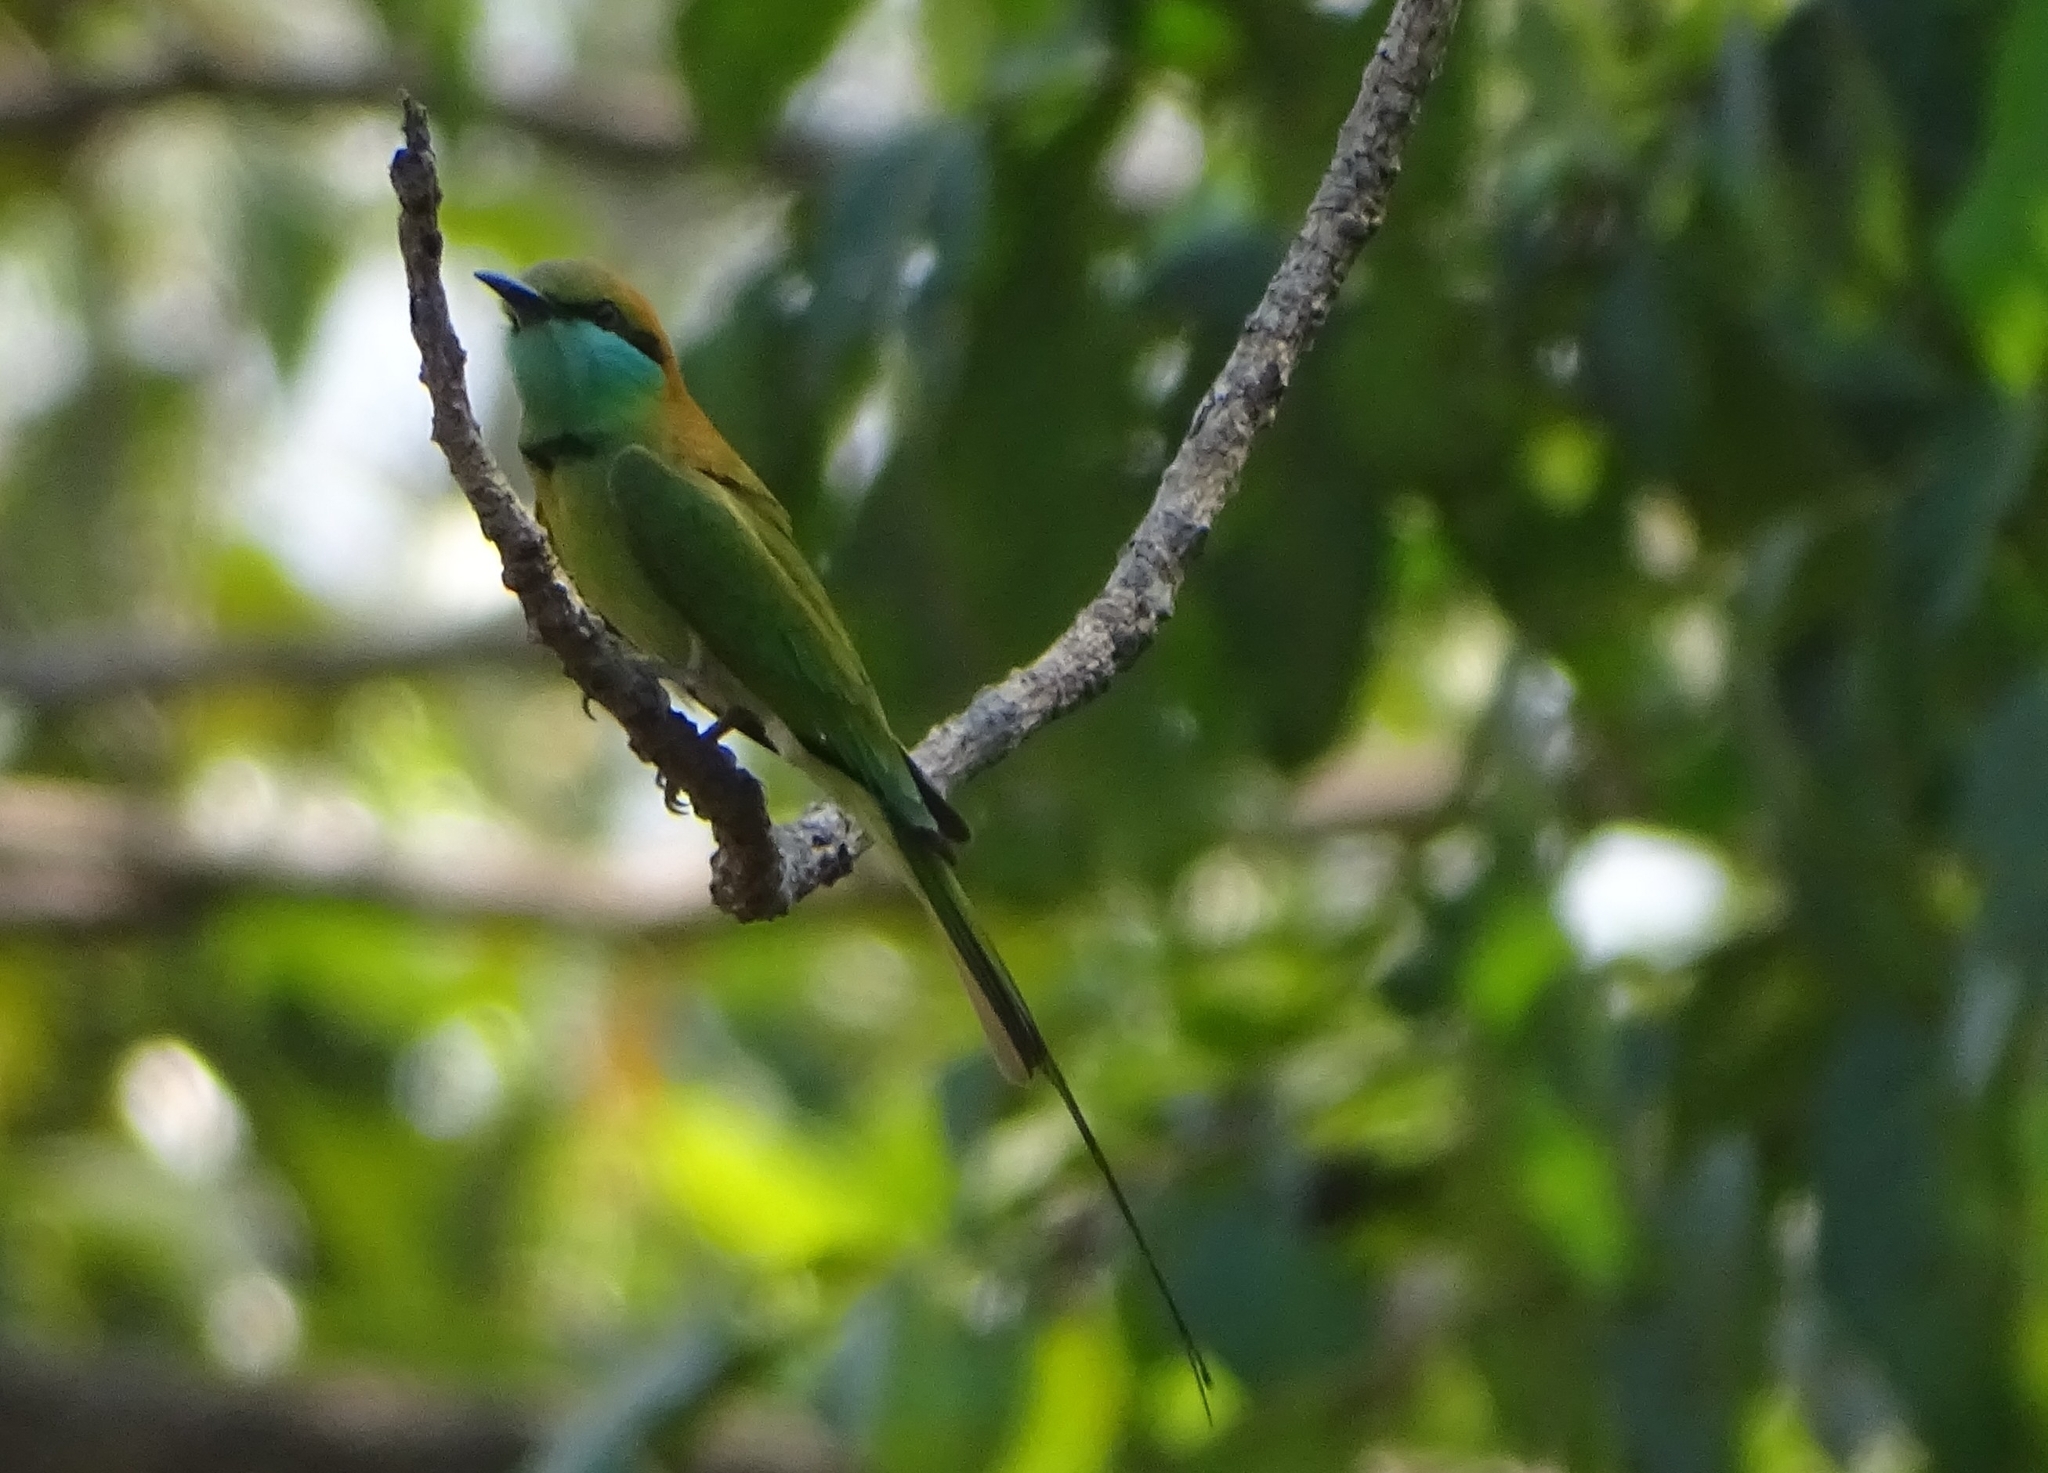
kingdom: Animalia
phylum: Chordata
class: Aves
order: Coraciiformes
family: Meropidae
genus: Merops
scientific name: Merops orientalis
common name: Green bee-eater
